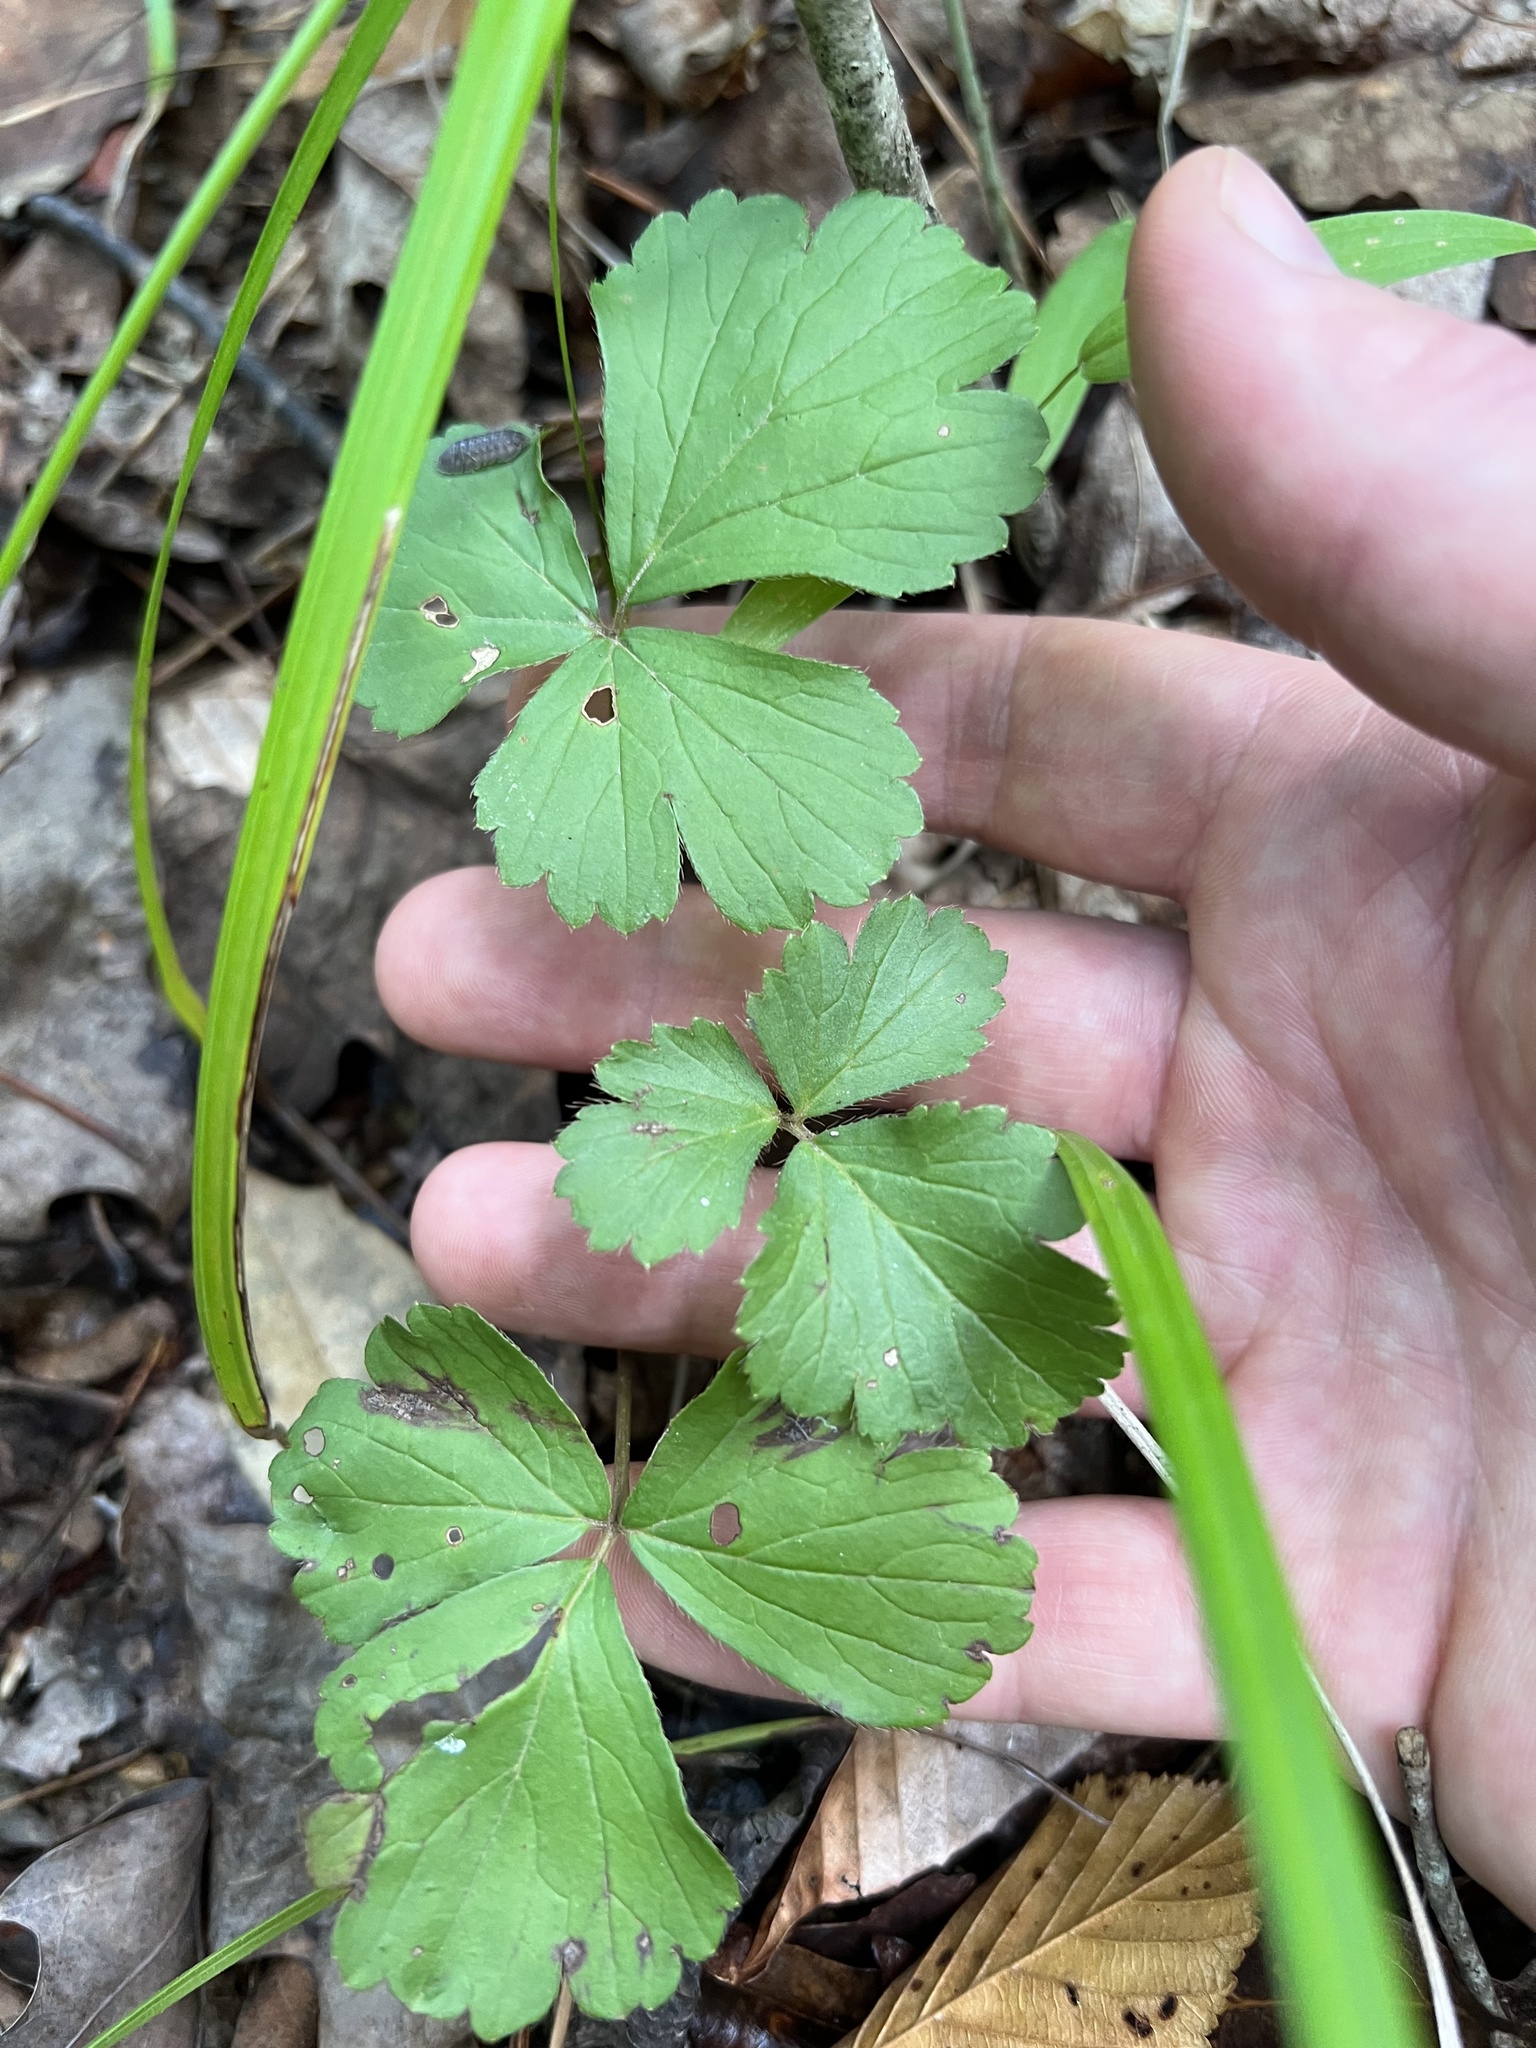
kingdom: Plantae
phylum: Tracheophyta
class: Magnoliopsida
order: Rosales
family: Rosaceae
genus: Geum
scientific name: Geum fragarioides
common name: Appalachian barren strawberry
